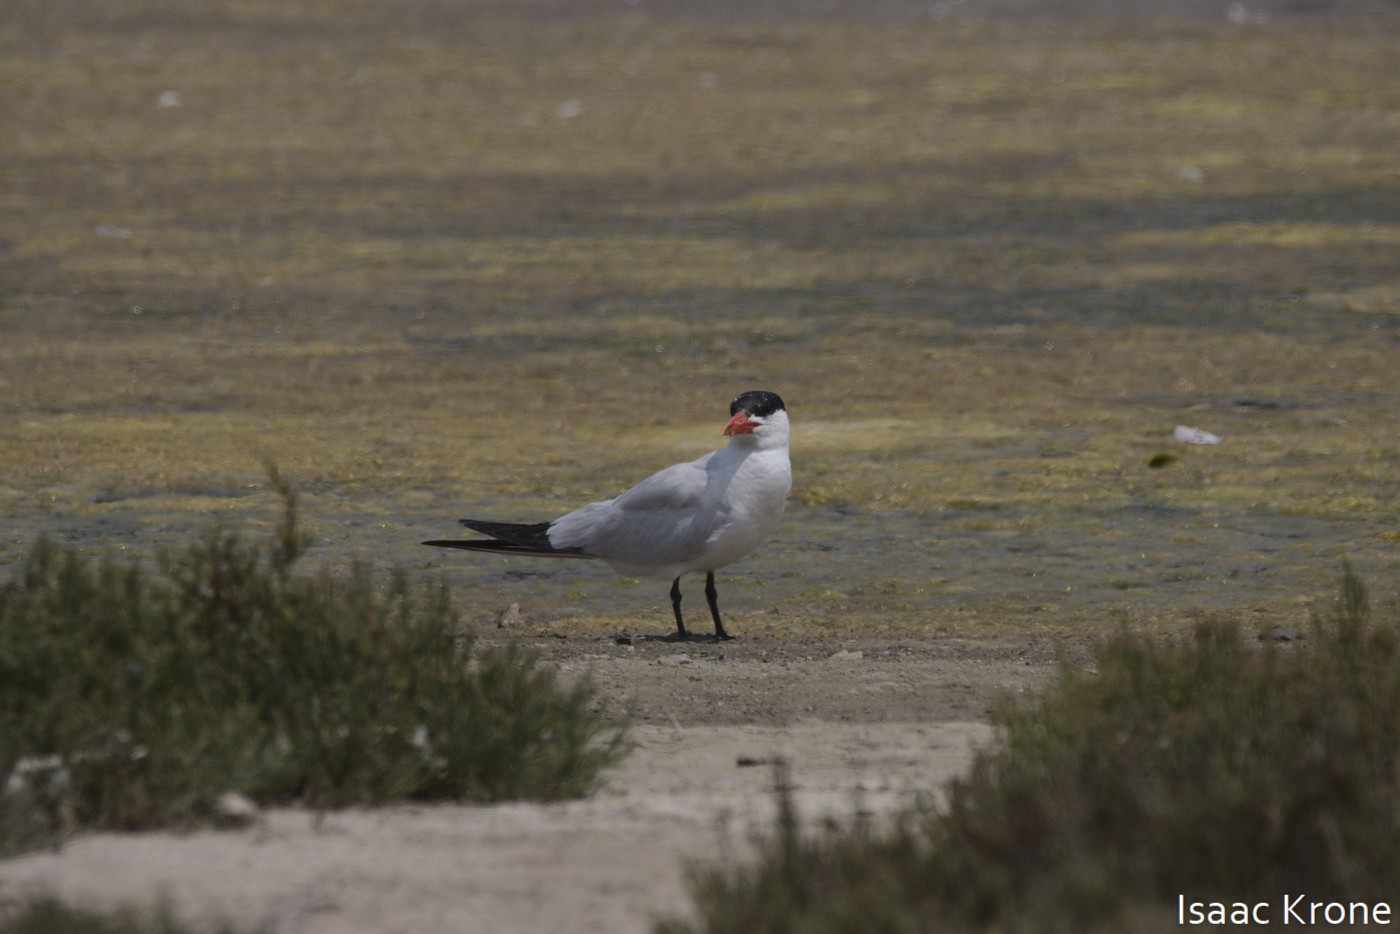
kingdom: Animalia
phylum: Chordata
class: Aves
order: Charadriiformes
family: Laridae
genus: Hydroprogne
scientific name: Hydroprogne caspia
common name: Caspian tern
